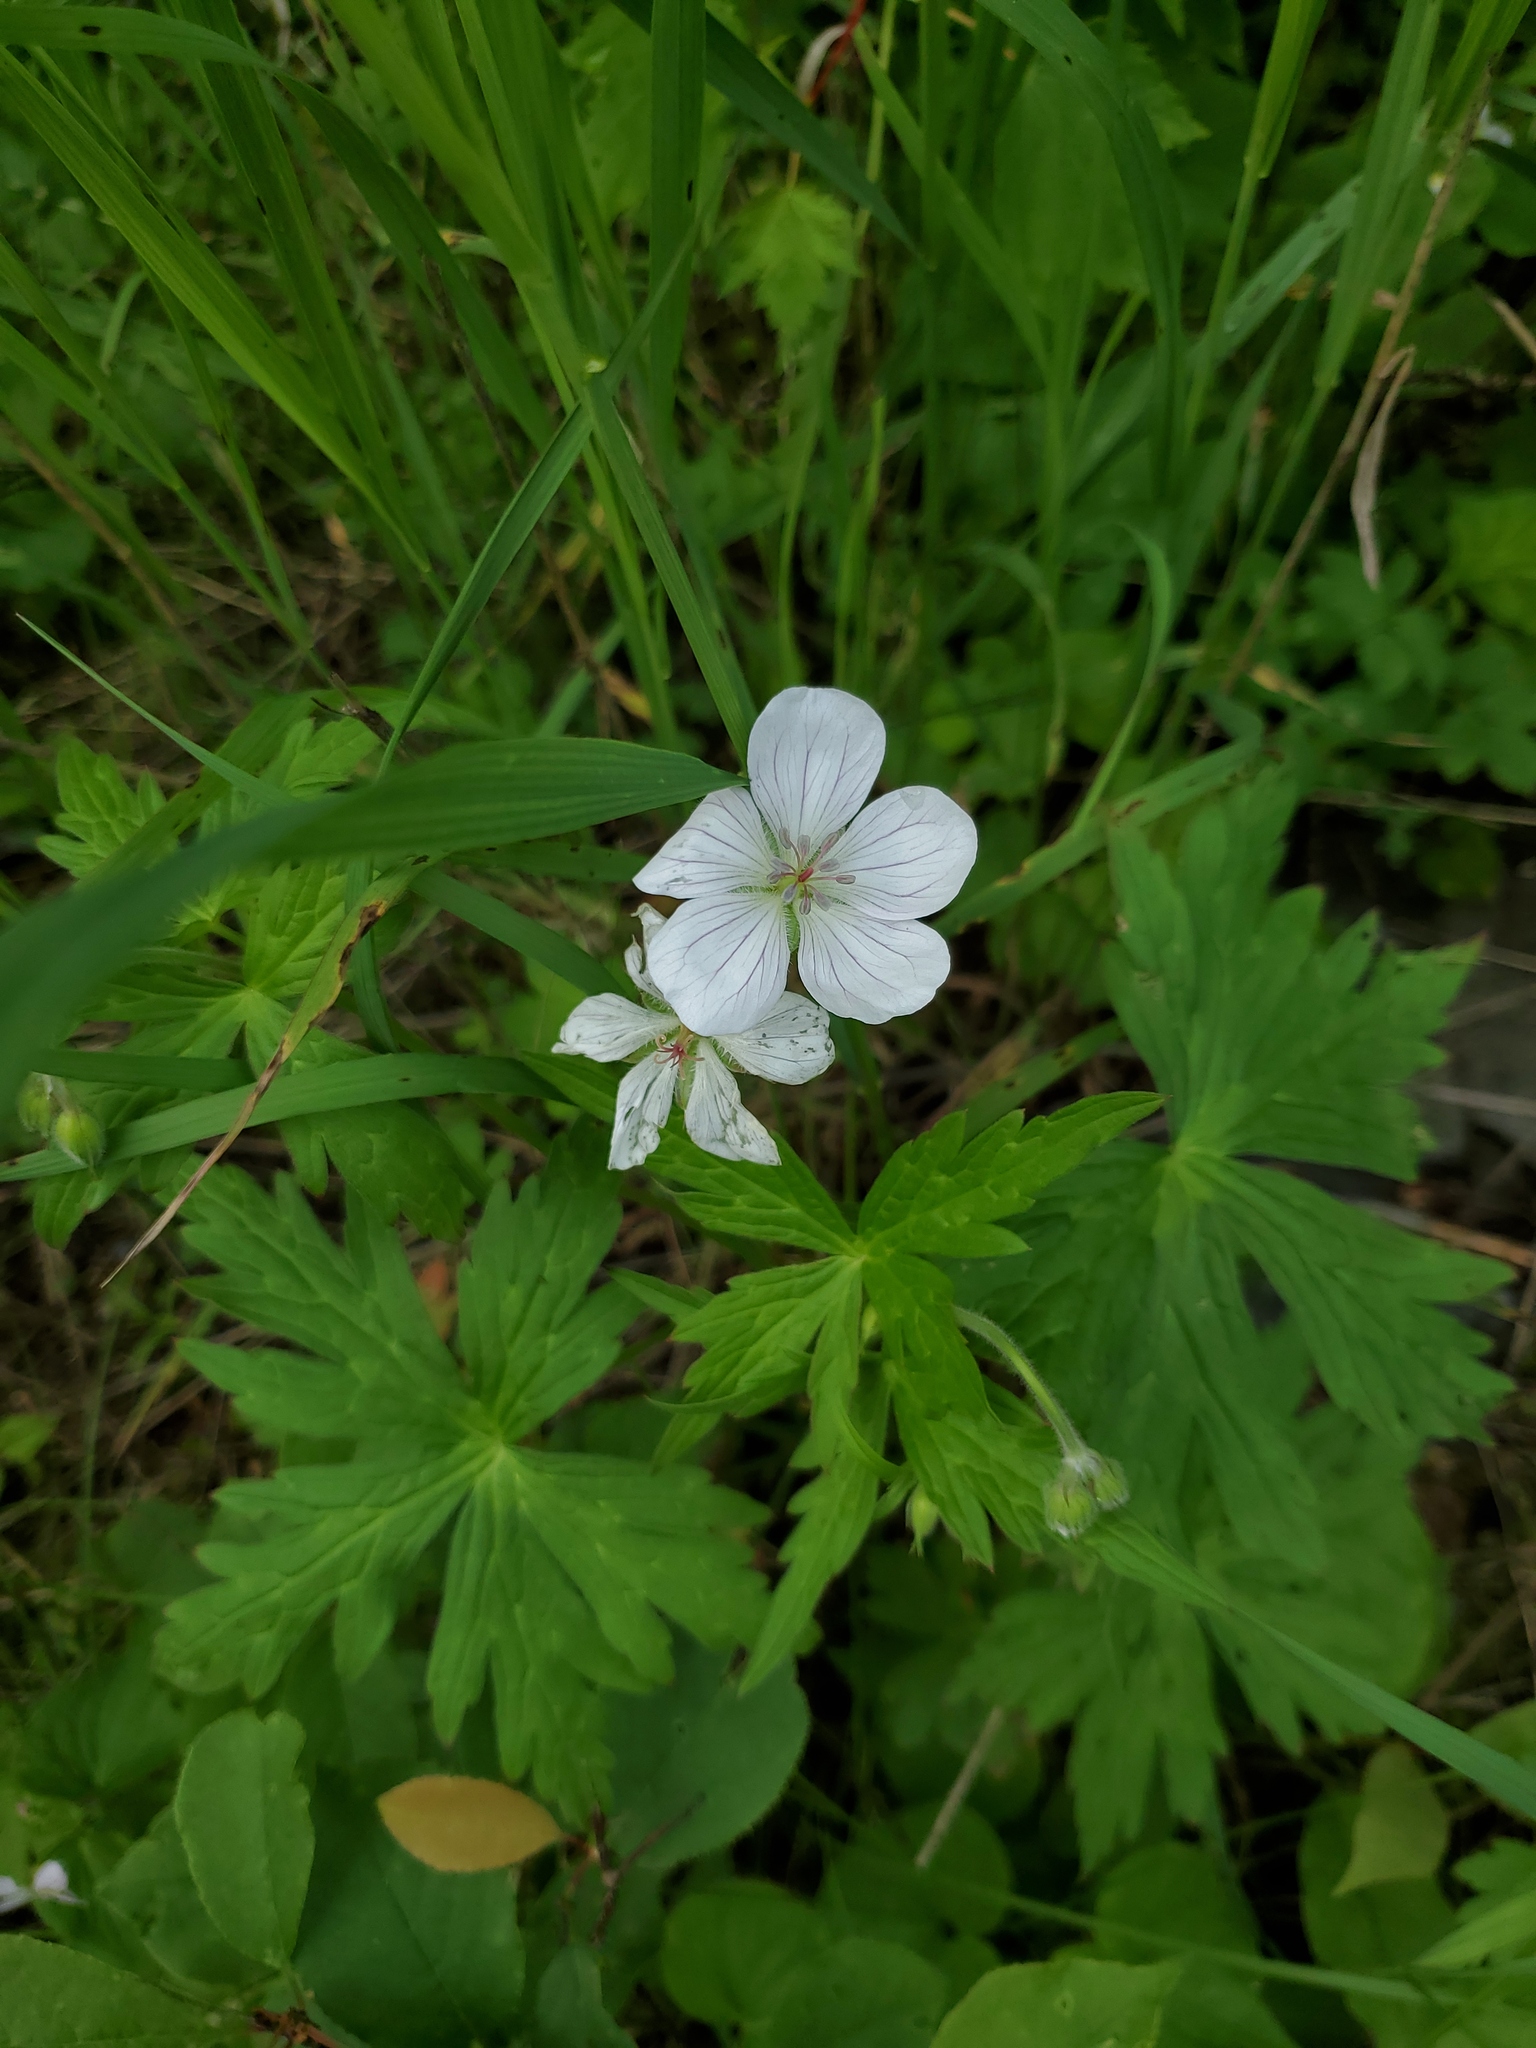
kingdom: Plantae
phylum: Tracheophyta
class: Magnoliopsida
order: Geraniales
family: Geraniaceae
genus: Geranium
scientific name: Geranium richardsonii
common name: Richardson's crane's-bill
